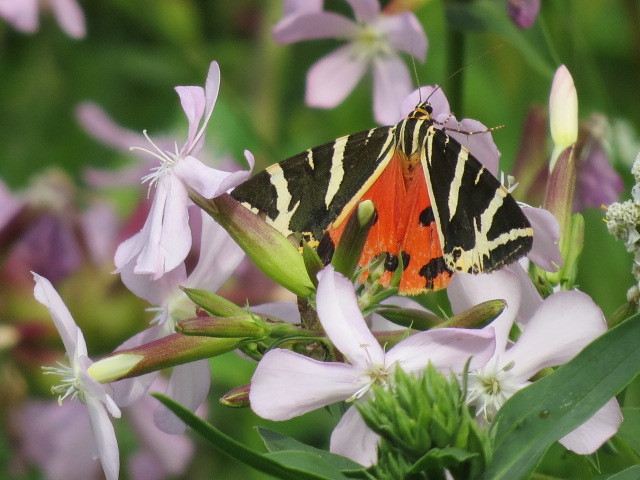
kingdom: Animalia
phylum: Arthropoda
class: Insecta
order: Lepidoptera
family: Erebidae
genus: Euplagia
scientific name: Euplagia quadripunctaria
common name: Jersey tiger
